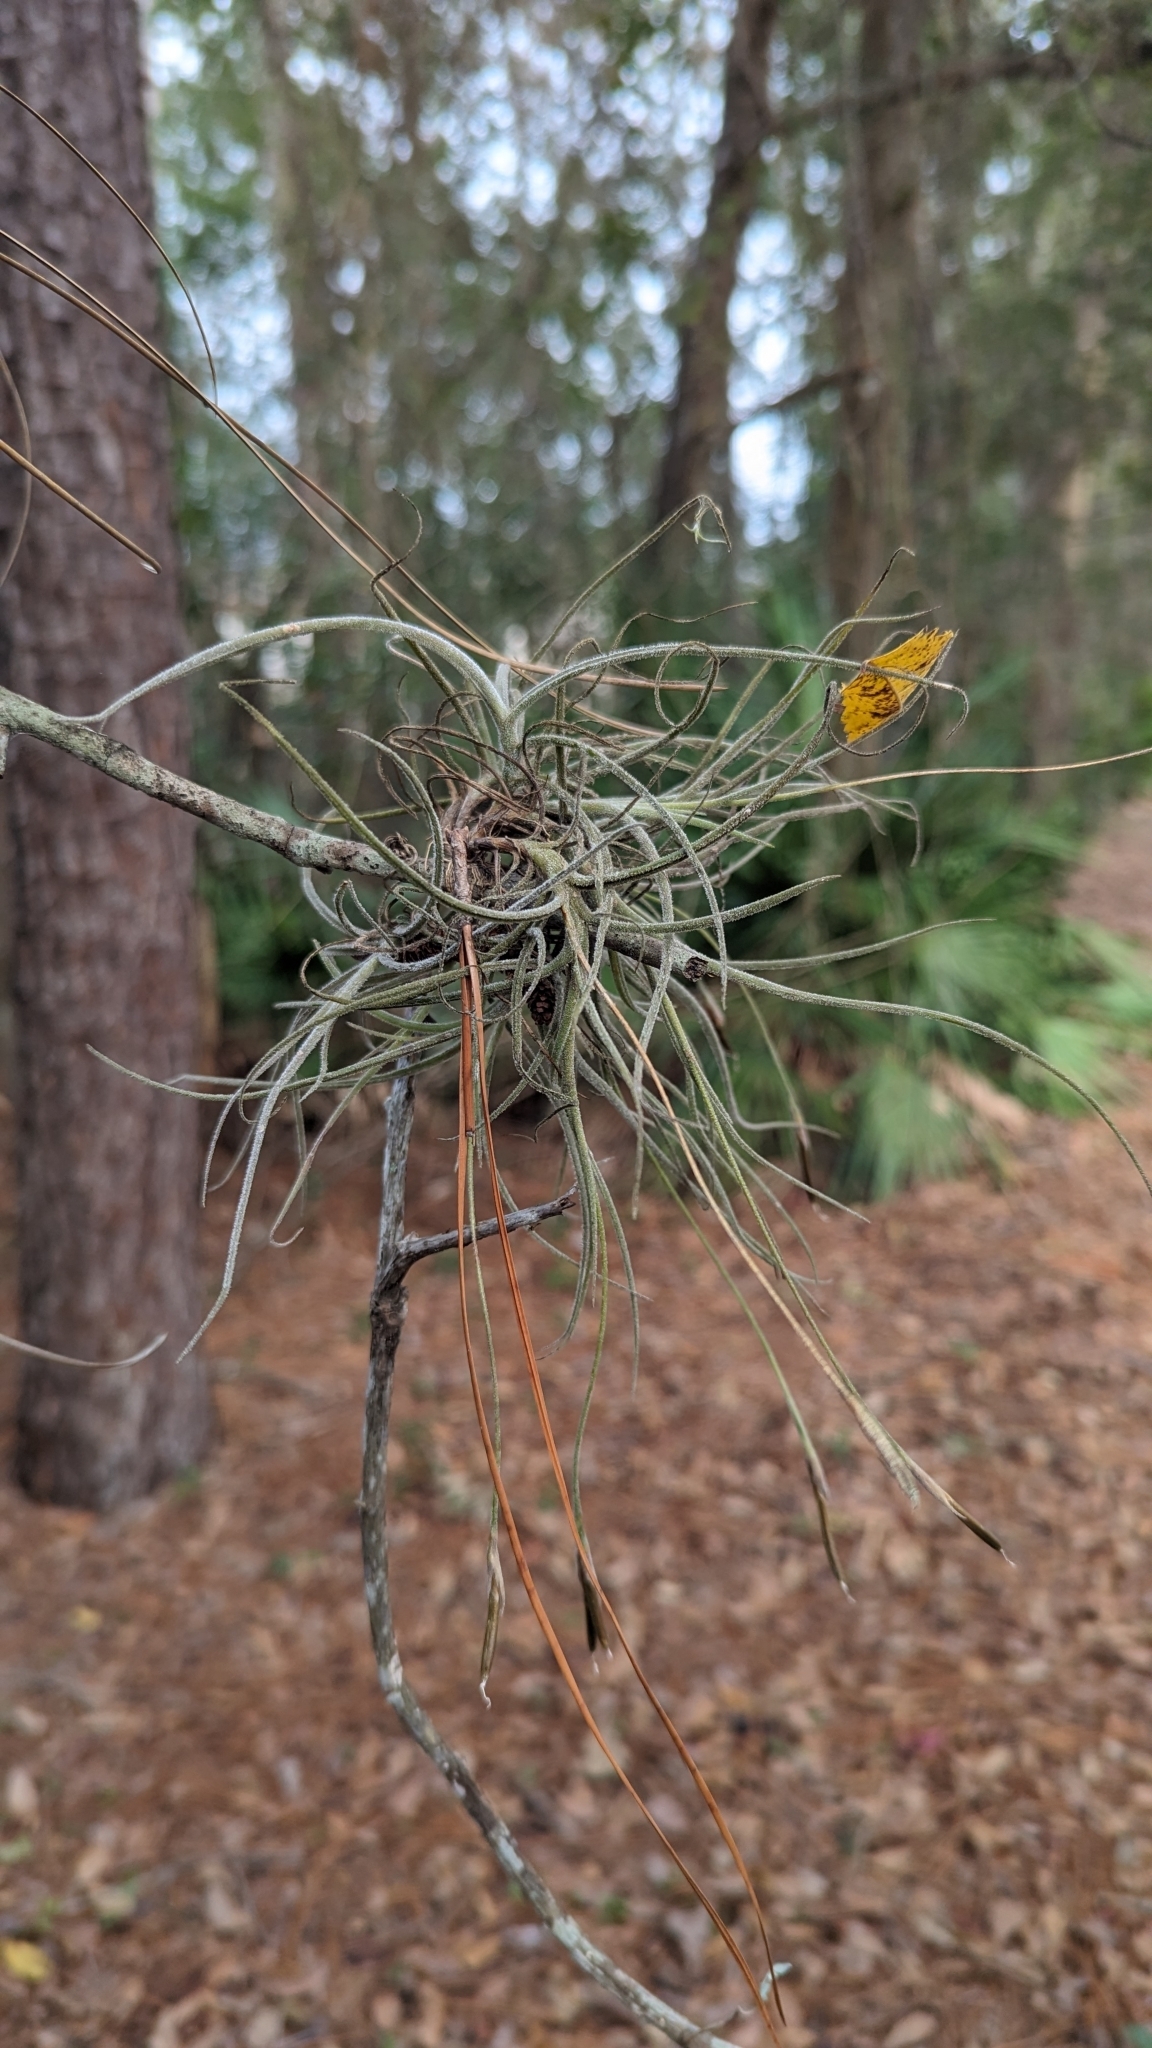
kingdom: Plantae
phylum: Tracheophyta
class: Liliopsida
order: Poales
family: Bromeliaceae
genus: Tillandsia
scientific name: Tillandsia recurvata
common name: Small ballmoss
